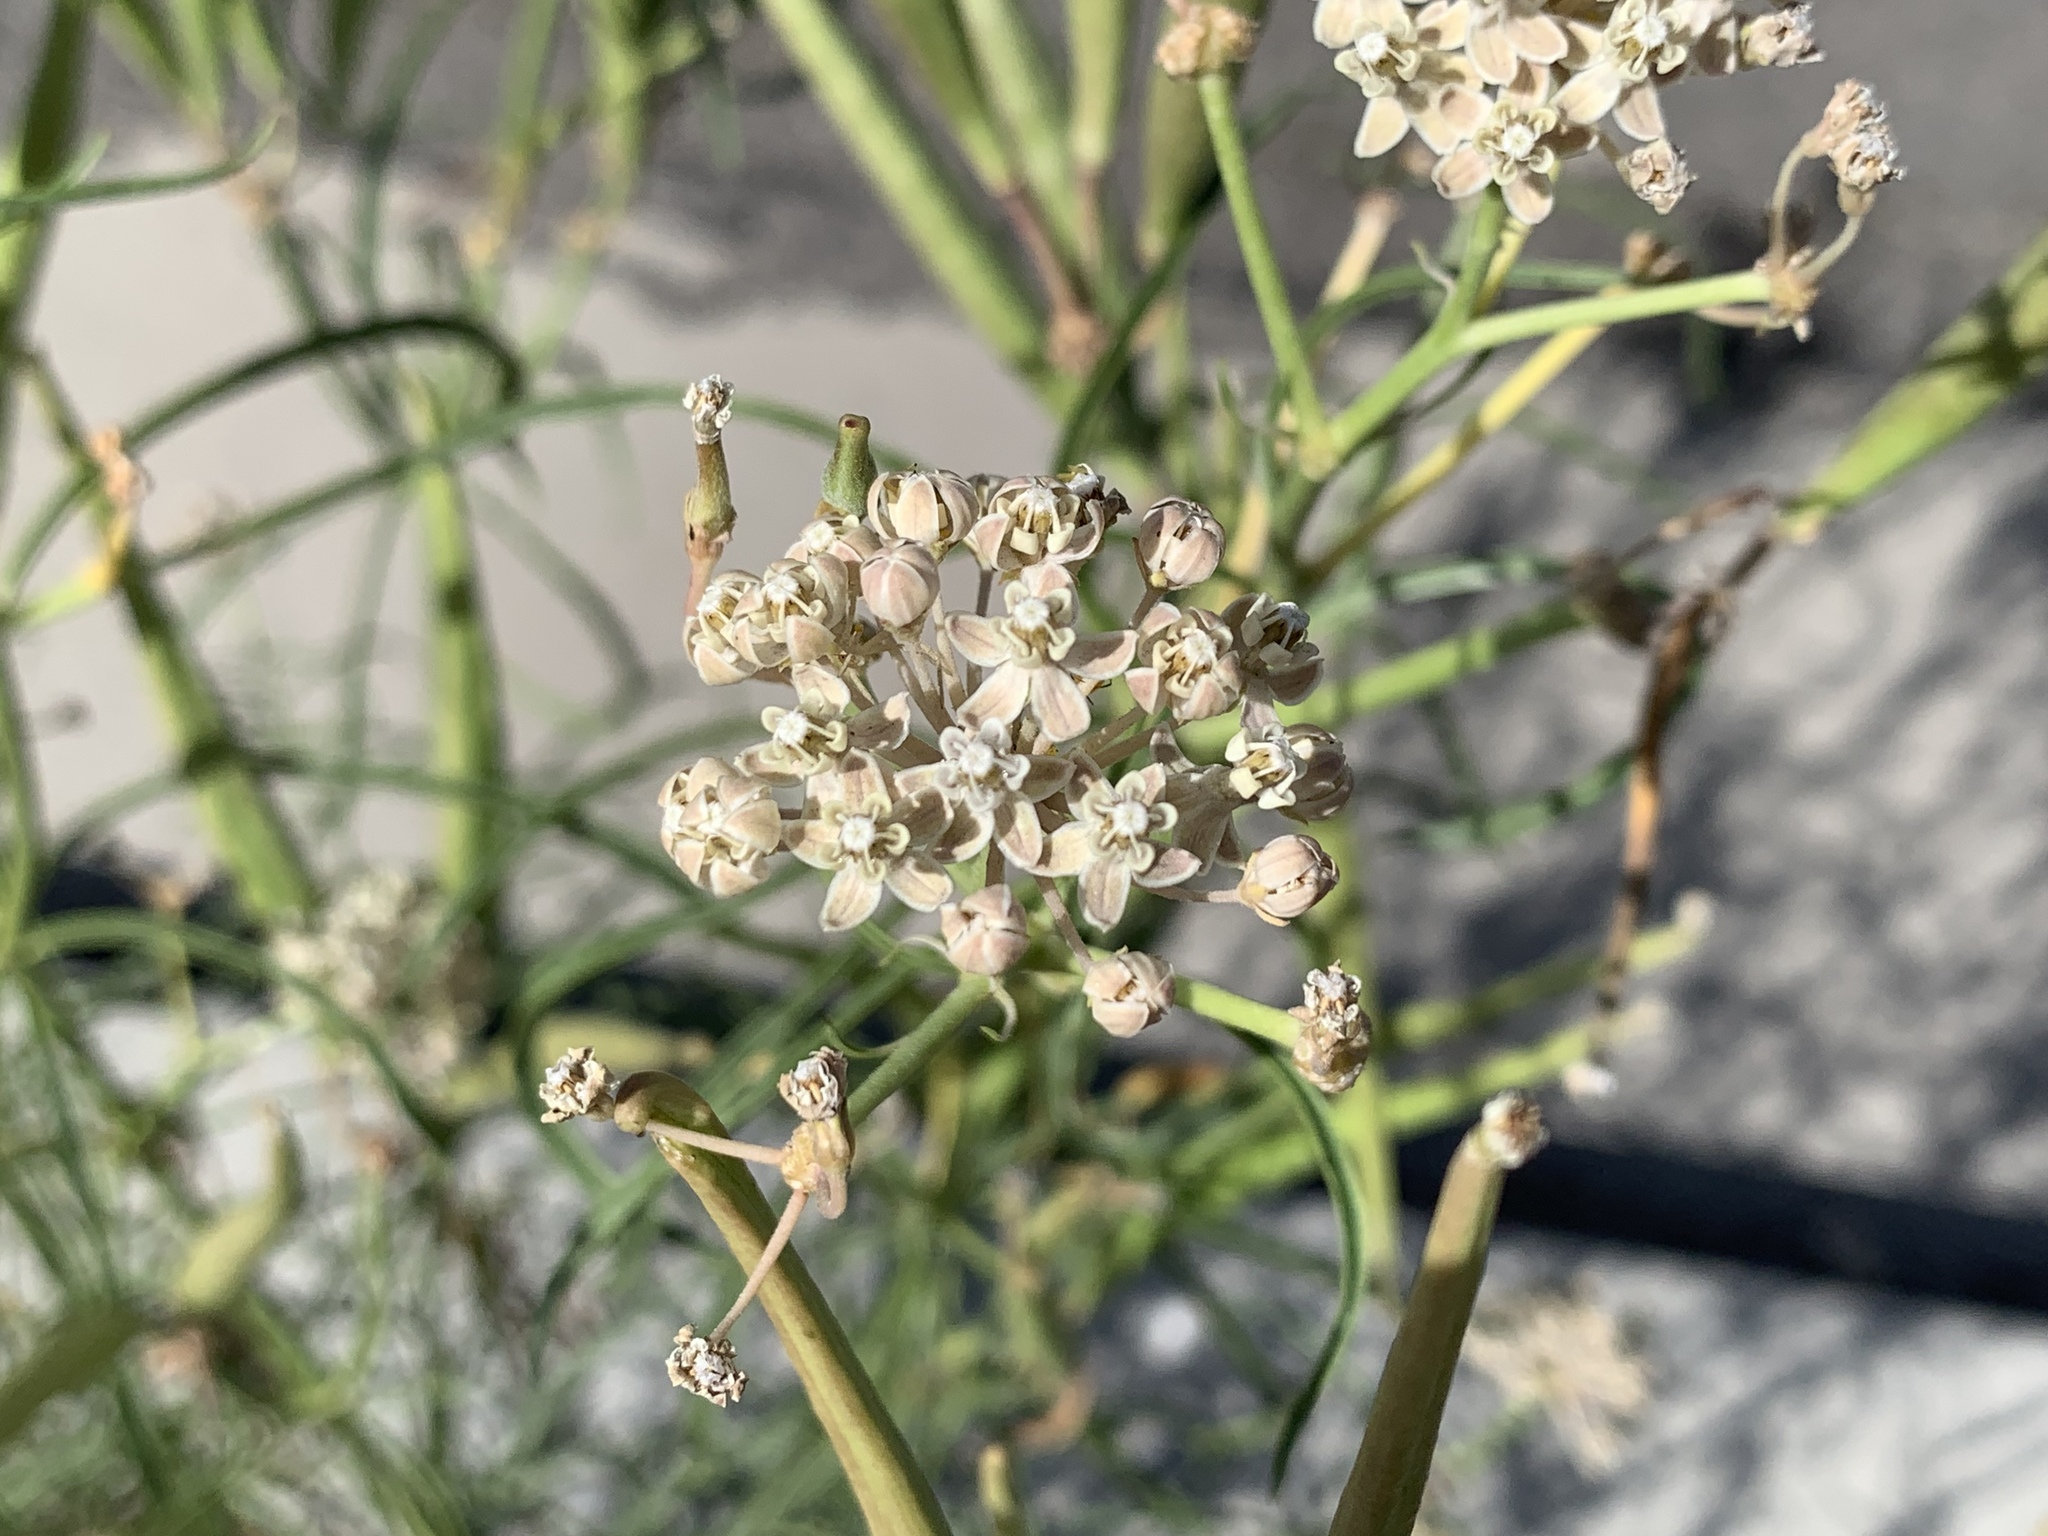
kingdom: Plantae
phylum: Tracheophyta
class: Magnoliopsida
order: Gentianales
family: Apocynaceae
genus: Asclepias
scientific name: Asclepias fascicularis
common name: Mexican milkweed
